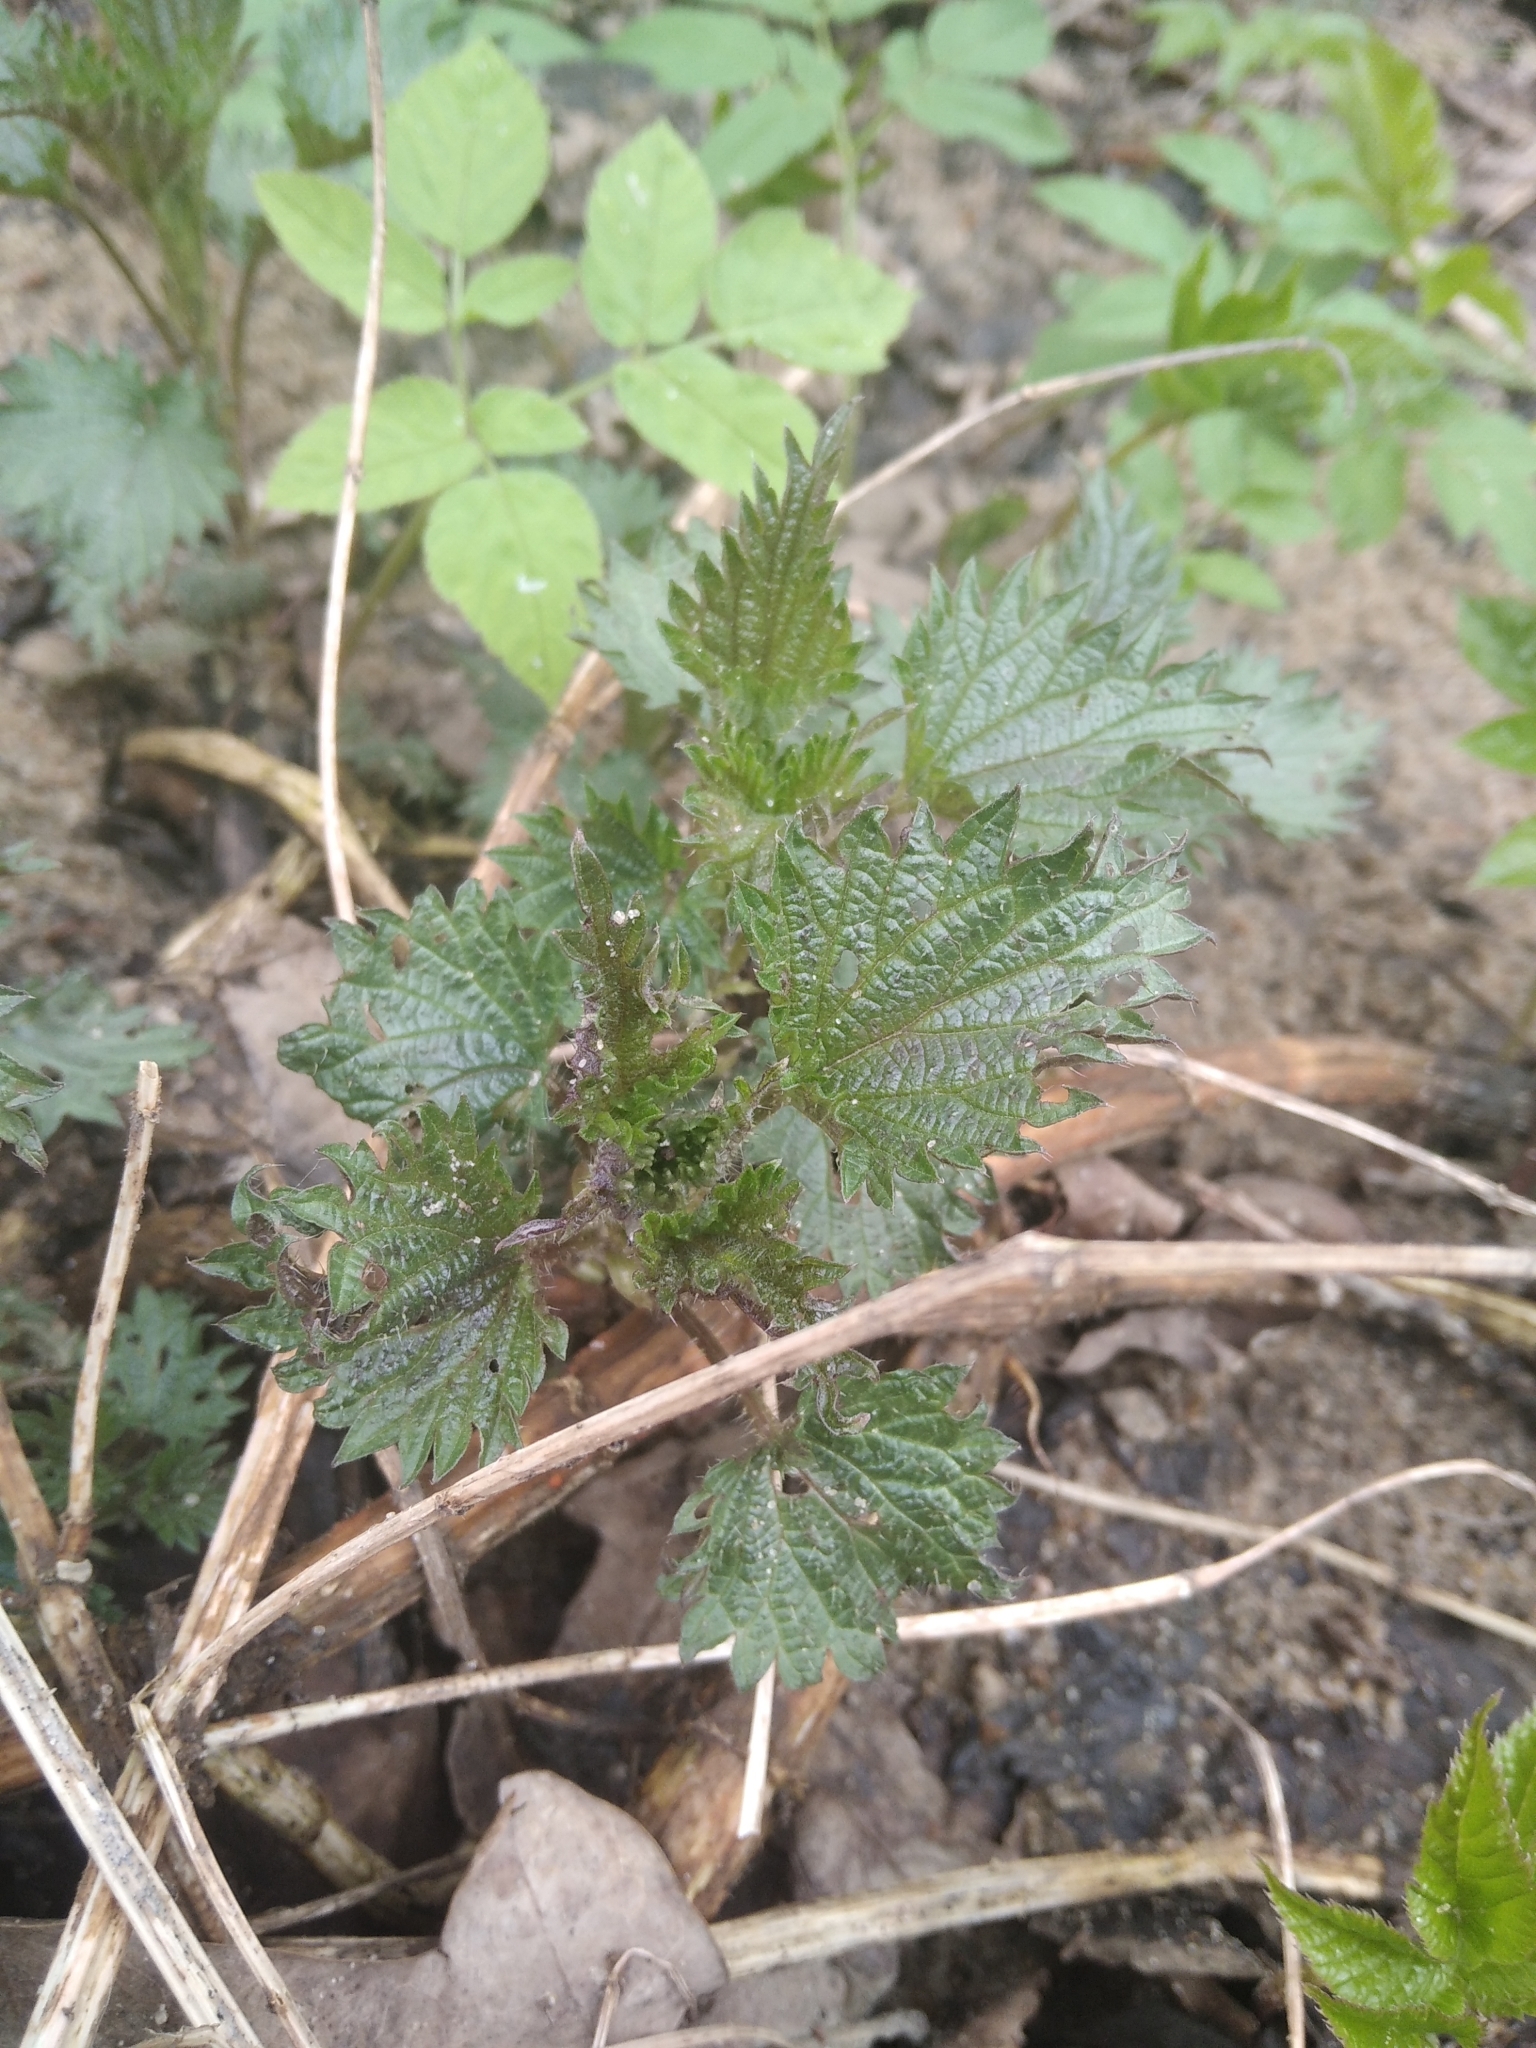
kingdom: Plantae
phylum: Tracheophyta
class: Magnoliopsida
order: Rosales
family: Urticaceae
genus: Urtica
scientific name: Urtica dioica
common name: Common nettle
